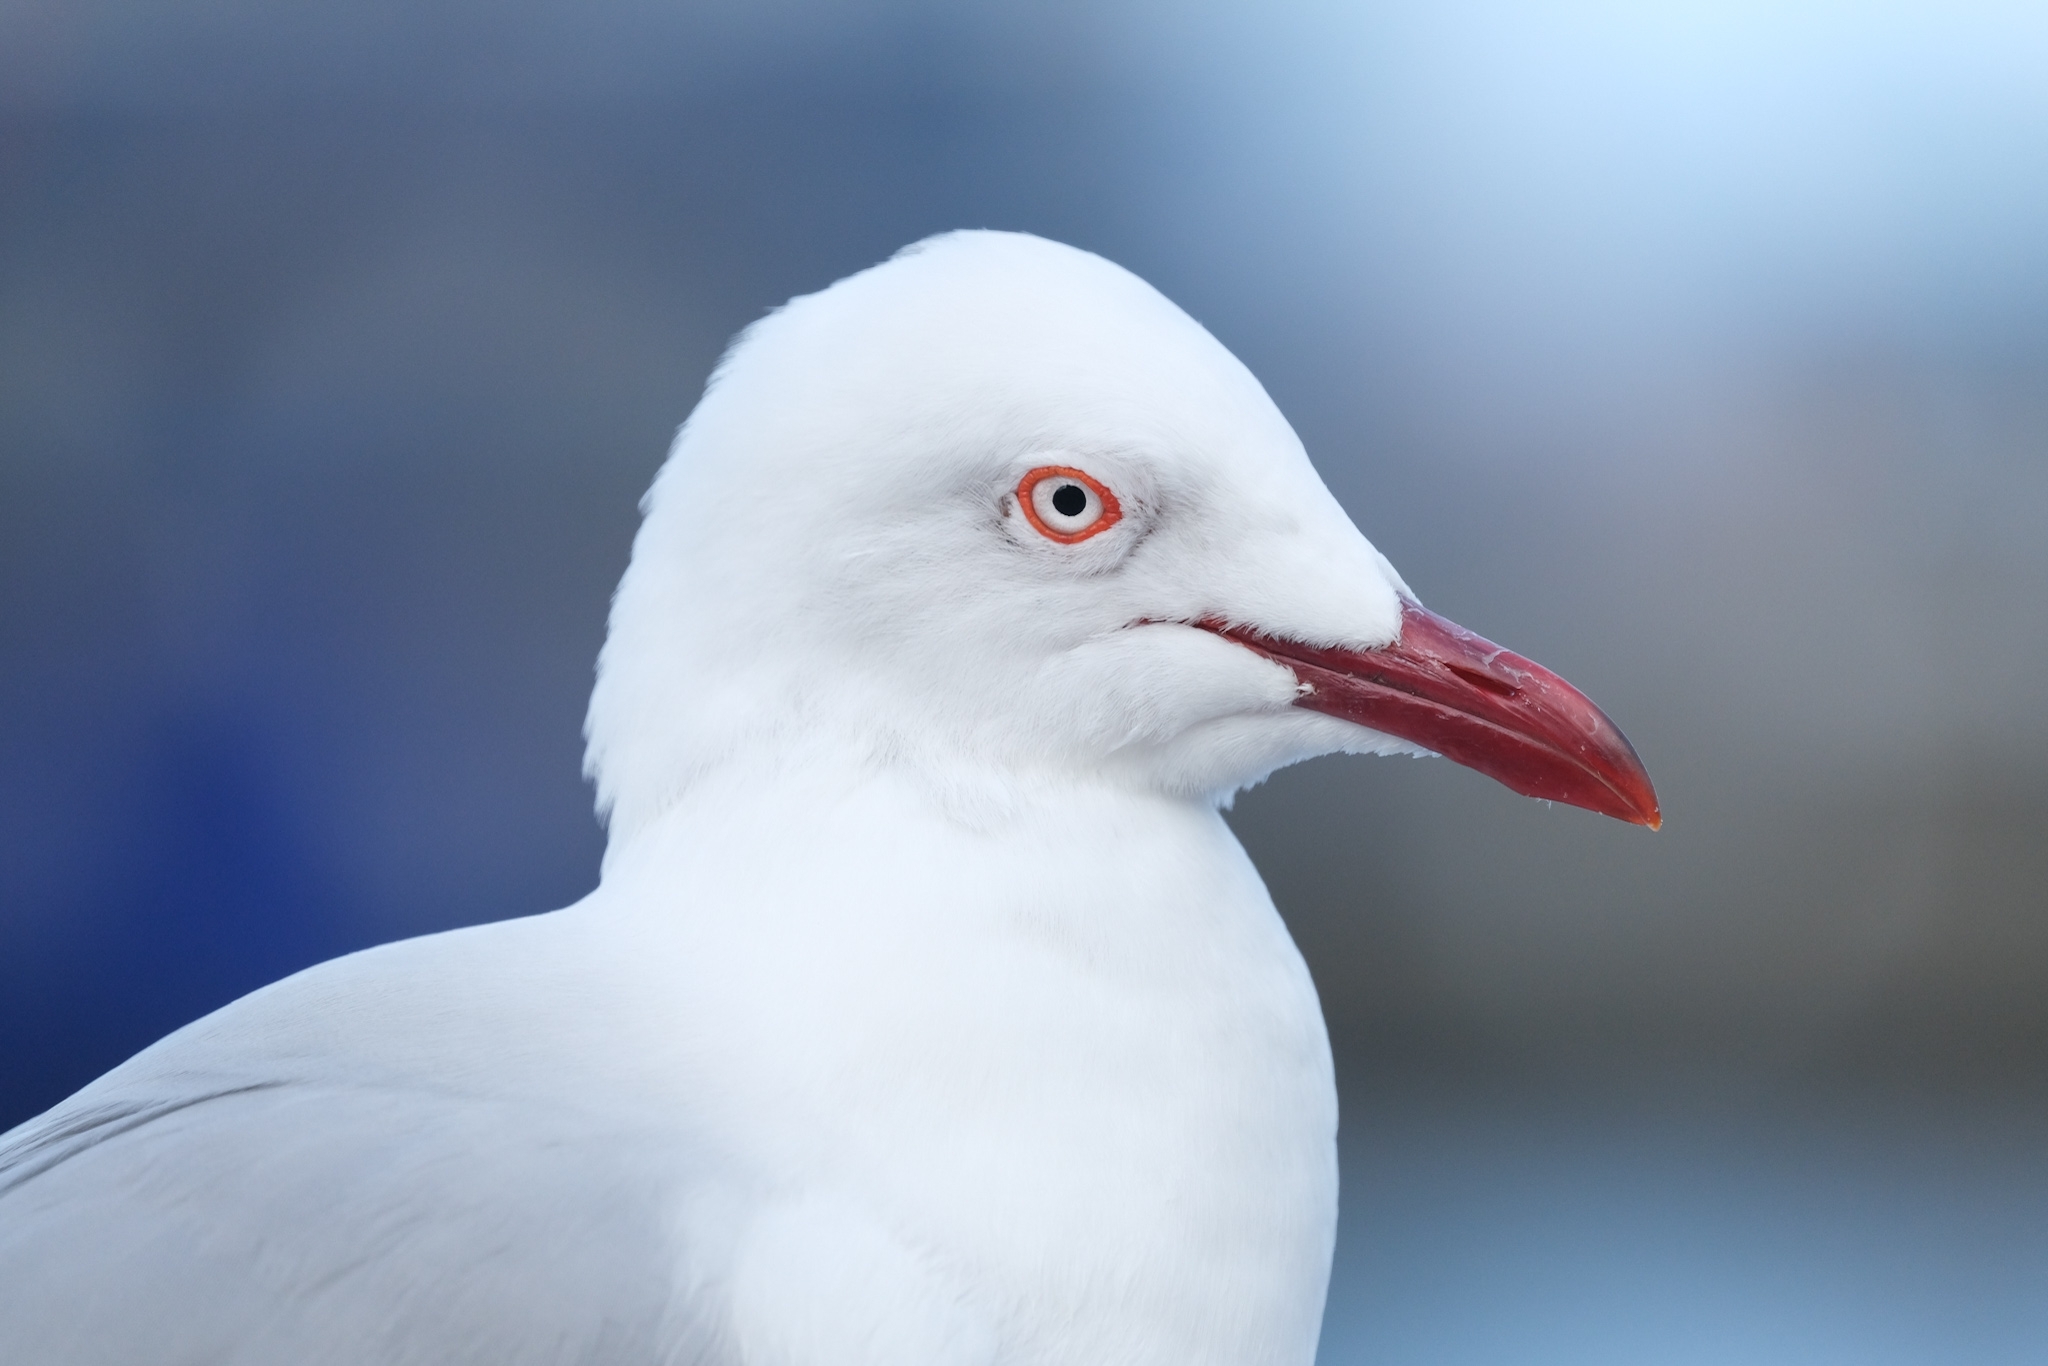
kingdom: Animalia
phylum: Chordata
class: Aves
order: Charadriiformes
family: Laridae
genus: Chroicocephalus
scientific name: Chroicocephalus novaehollandiae
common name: Silver gull
